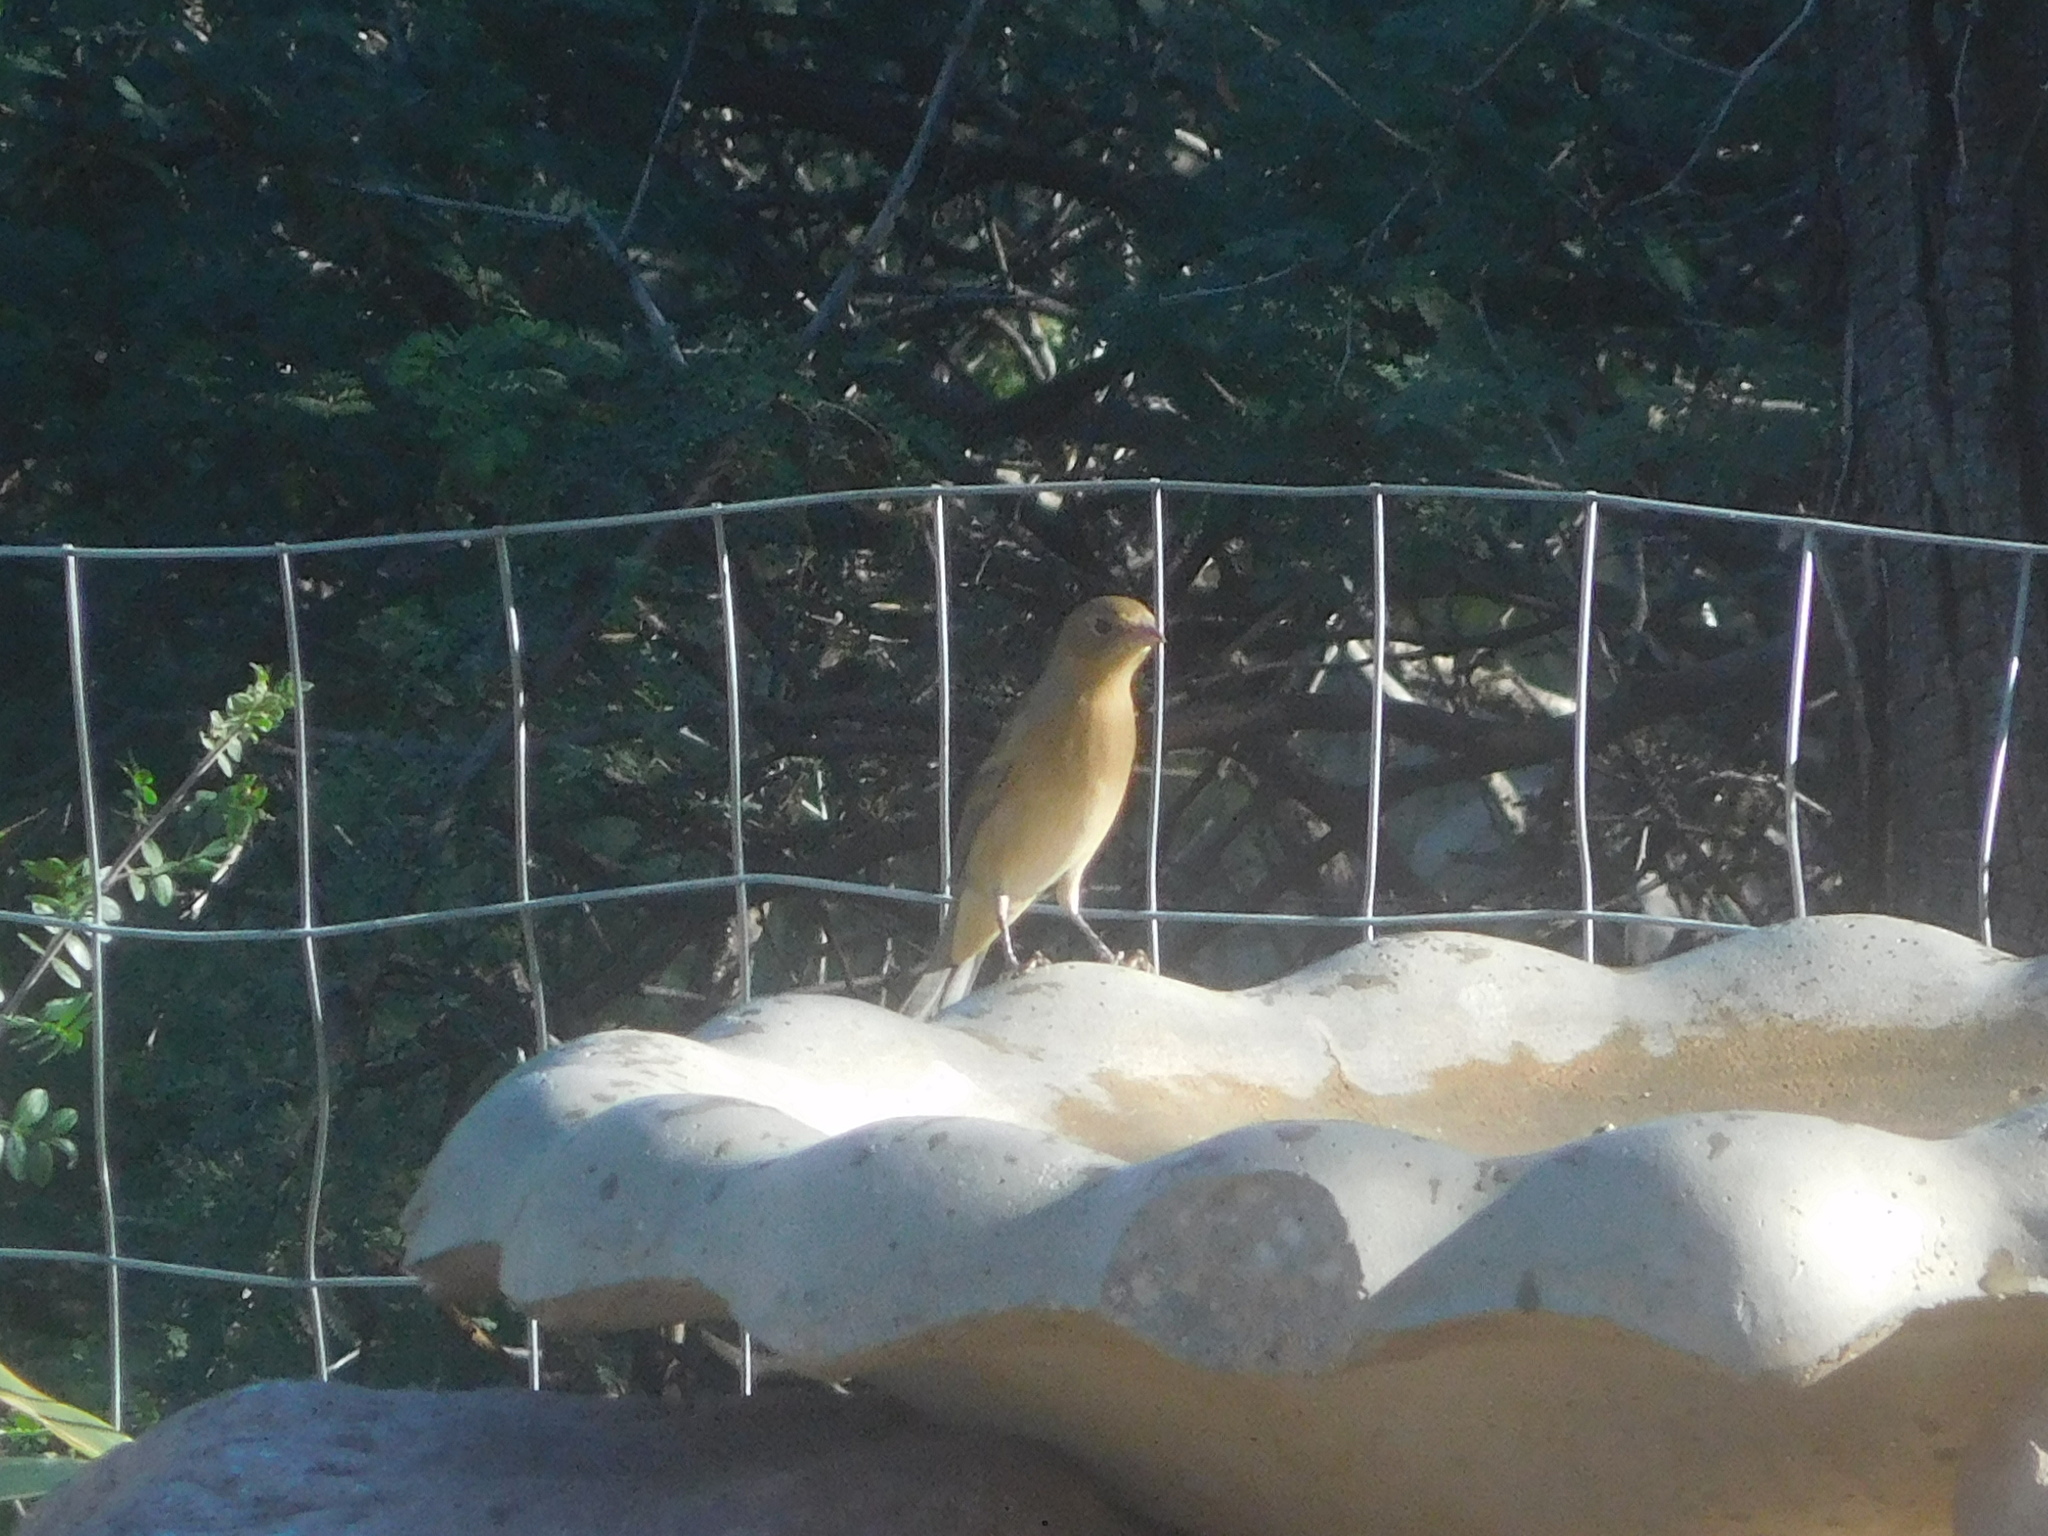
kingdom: Animalia
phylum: Chordata
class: Aves
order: Passeriformes
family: Cardinalidae
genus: Passerina
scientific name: Passerina amoena
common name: Lazuli bunting
